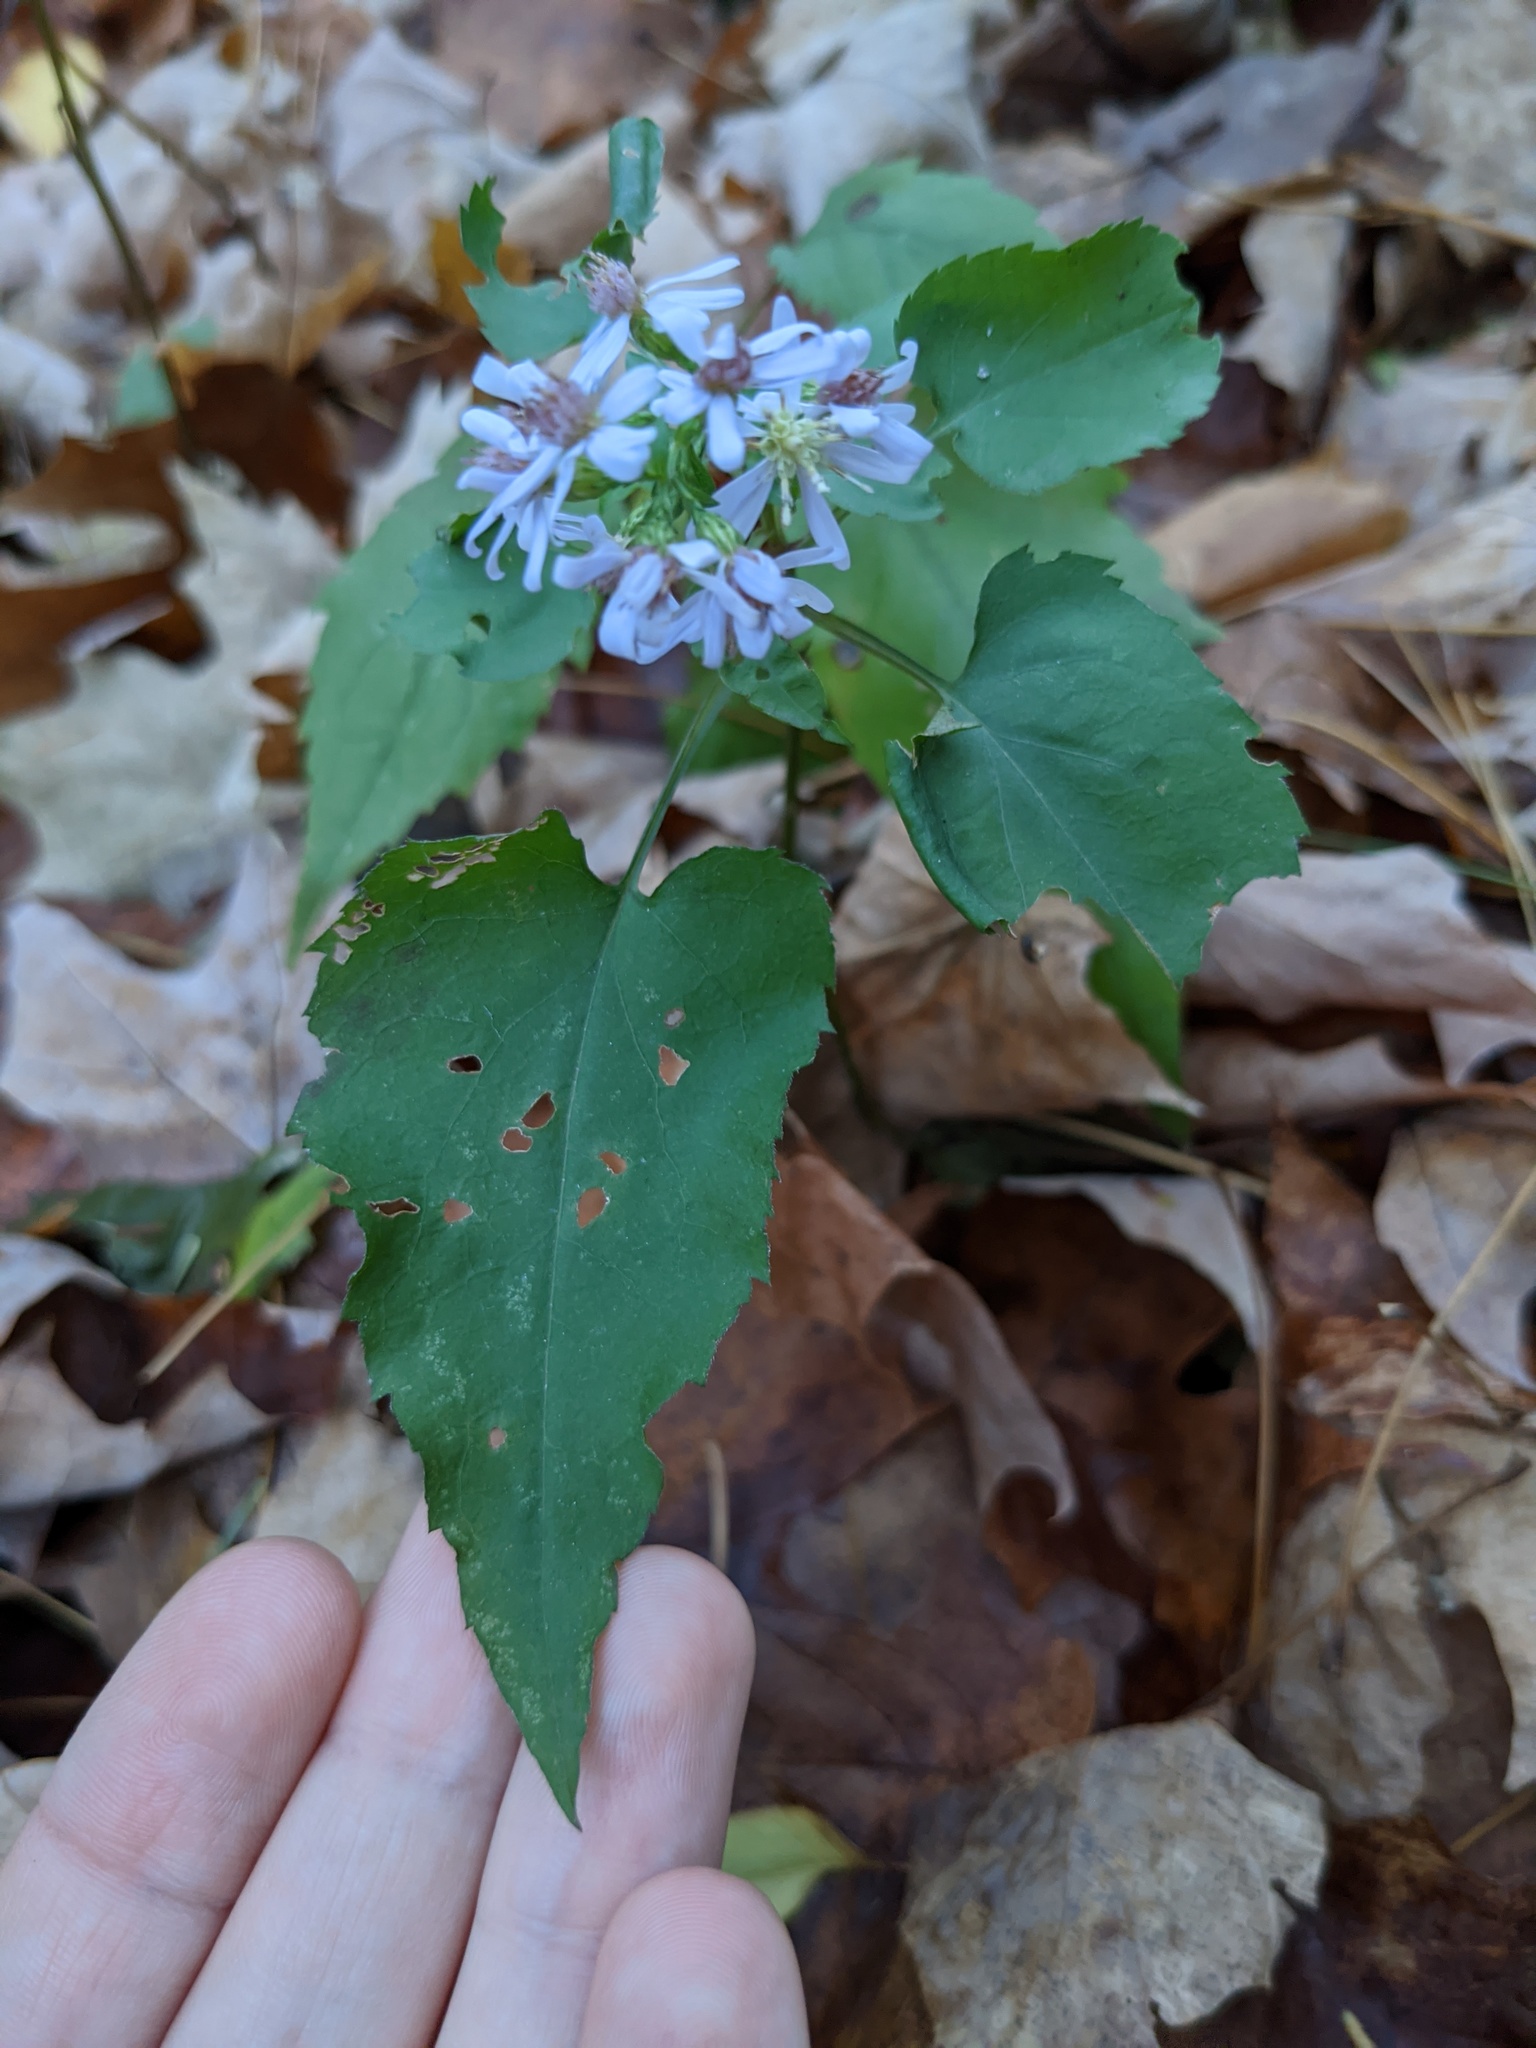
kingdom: Plantae
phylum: Tracheophyta
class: Magnoliopsida
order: Asterales
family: Asteraceae
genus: Symphyotrichum
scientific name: Symphyotrichum cordifolium
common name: Beeweed
